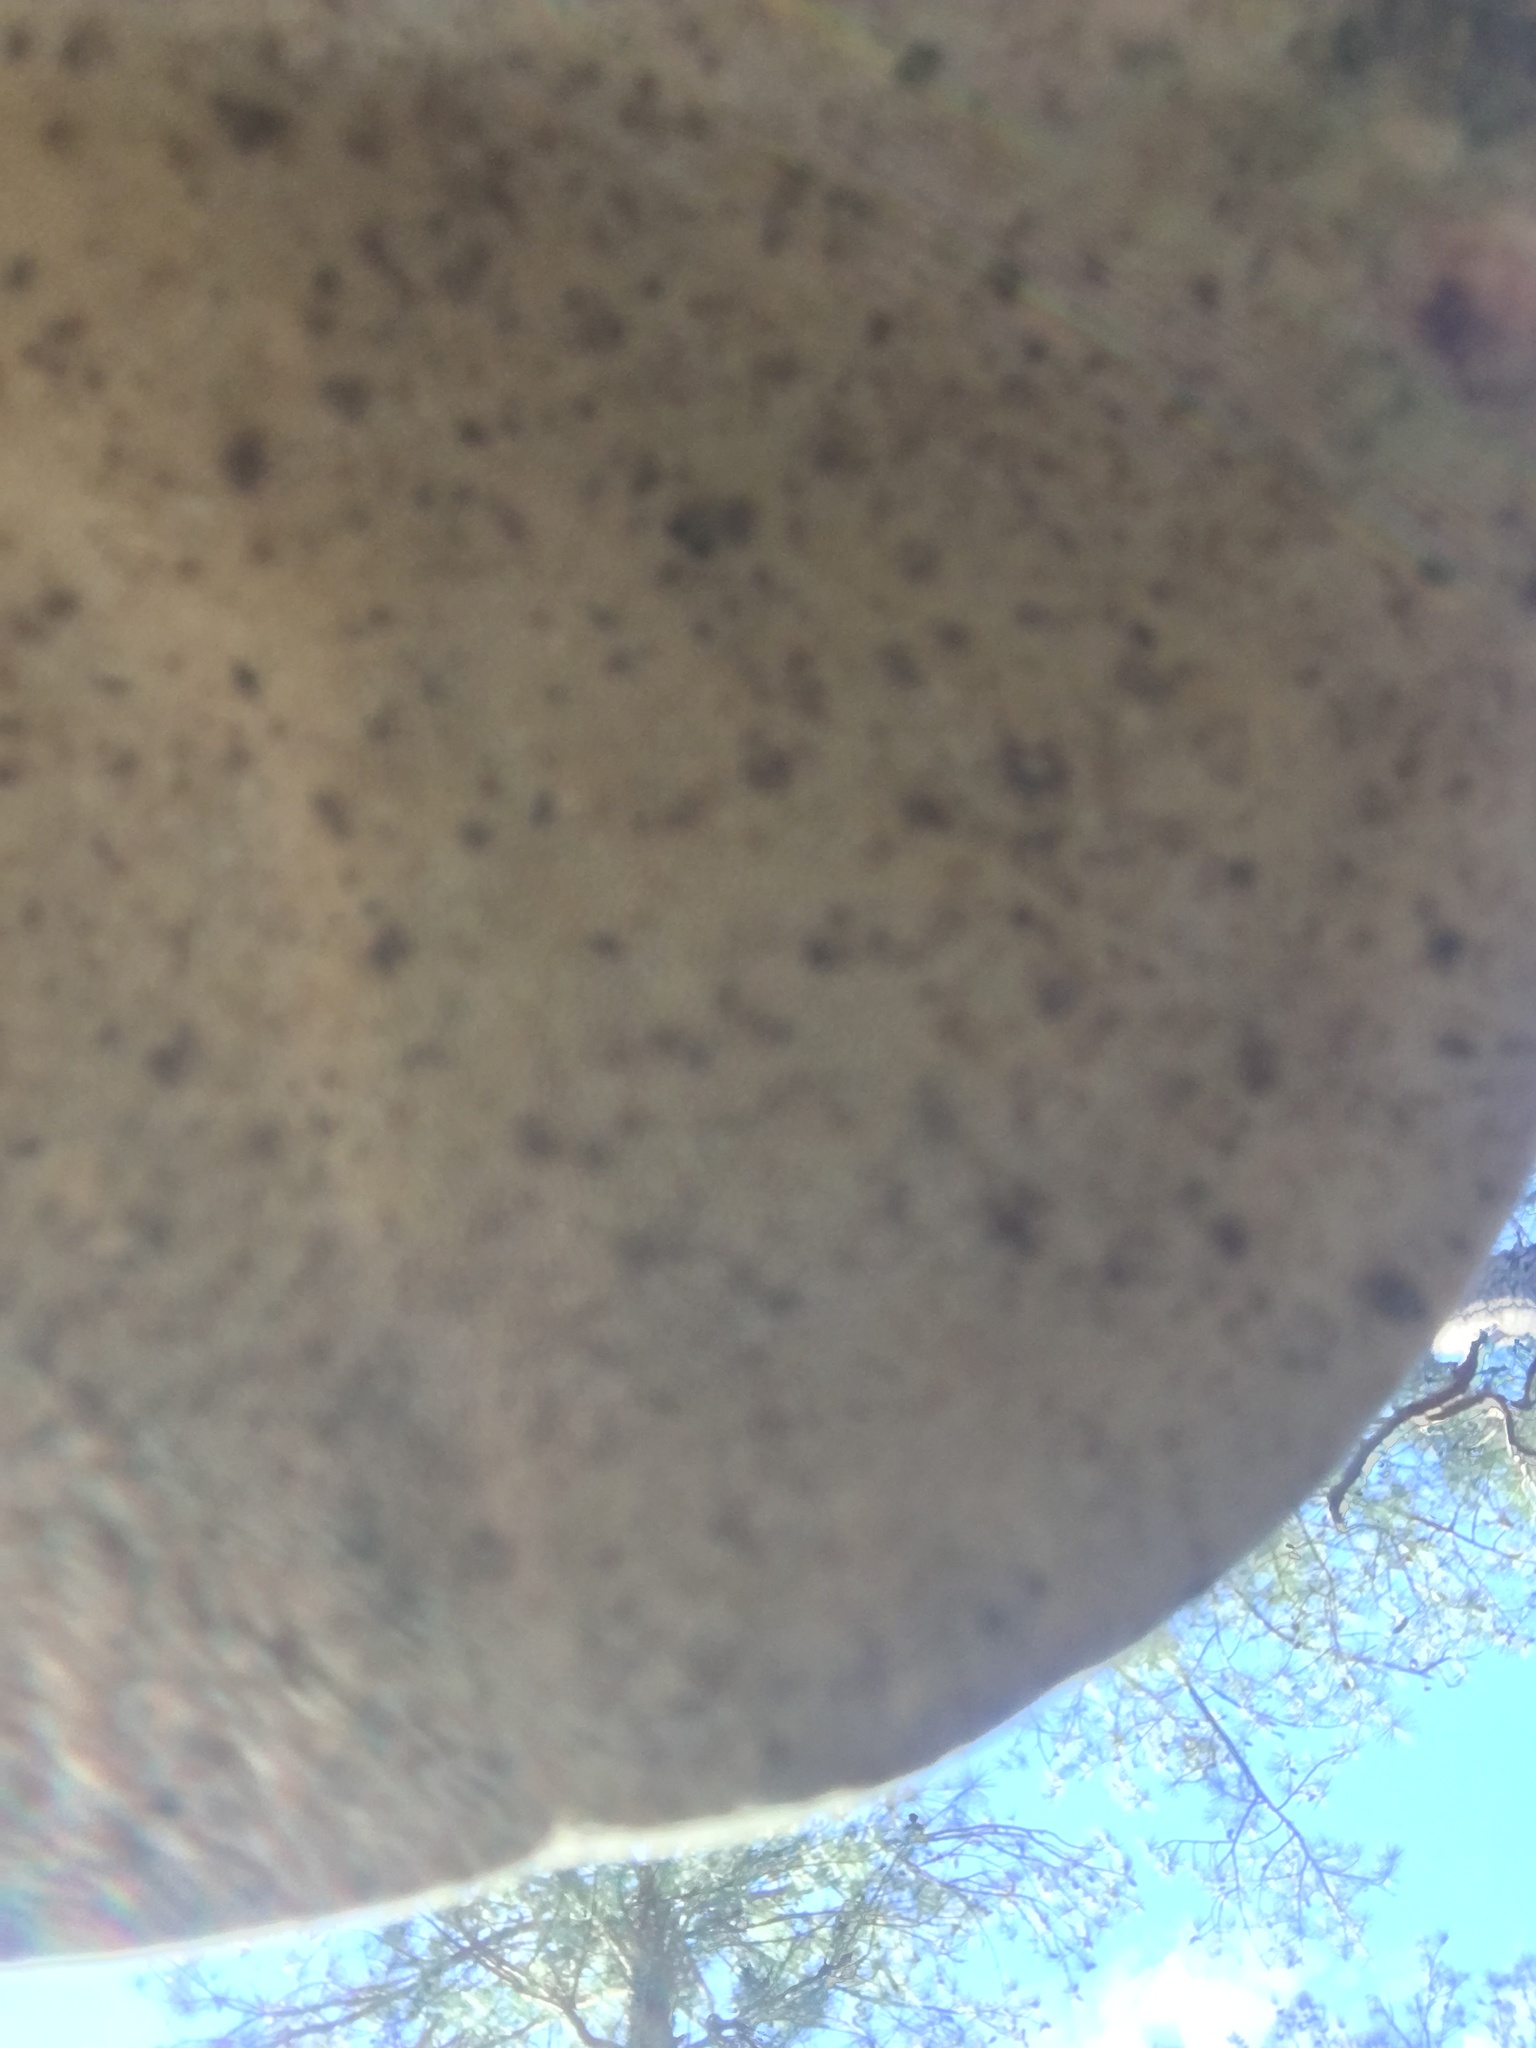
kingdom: Fungi
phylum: Basidiomycota
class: Agaricomycetes
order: Polyporales
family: Polyporaceae
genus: Trametes
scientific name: Trametes gibbosa
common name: Lumpy bracket
